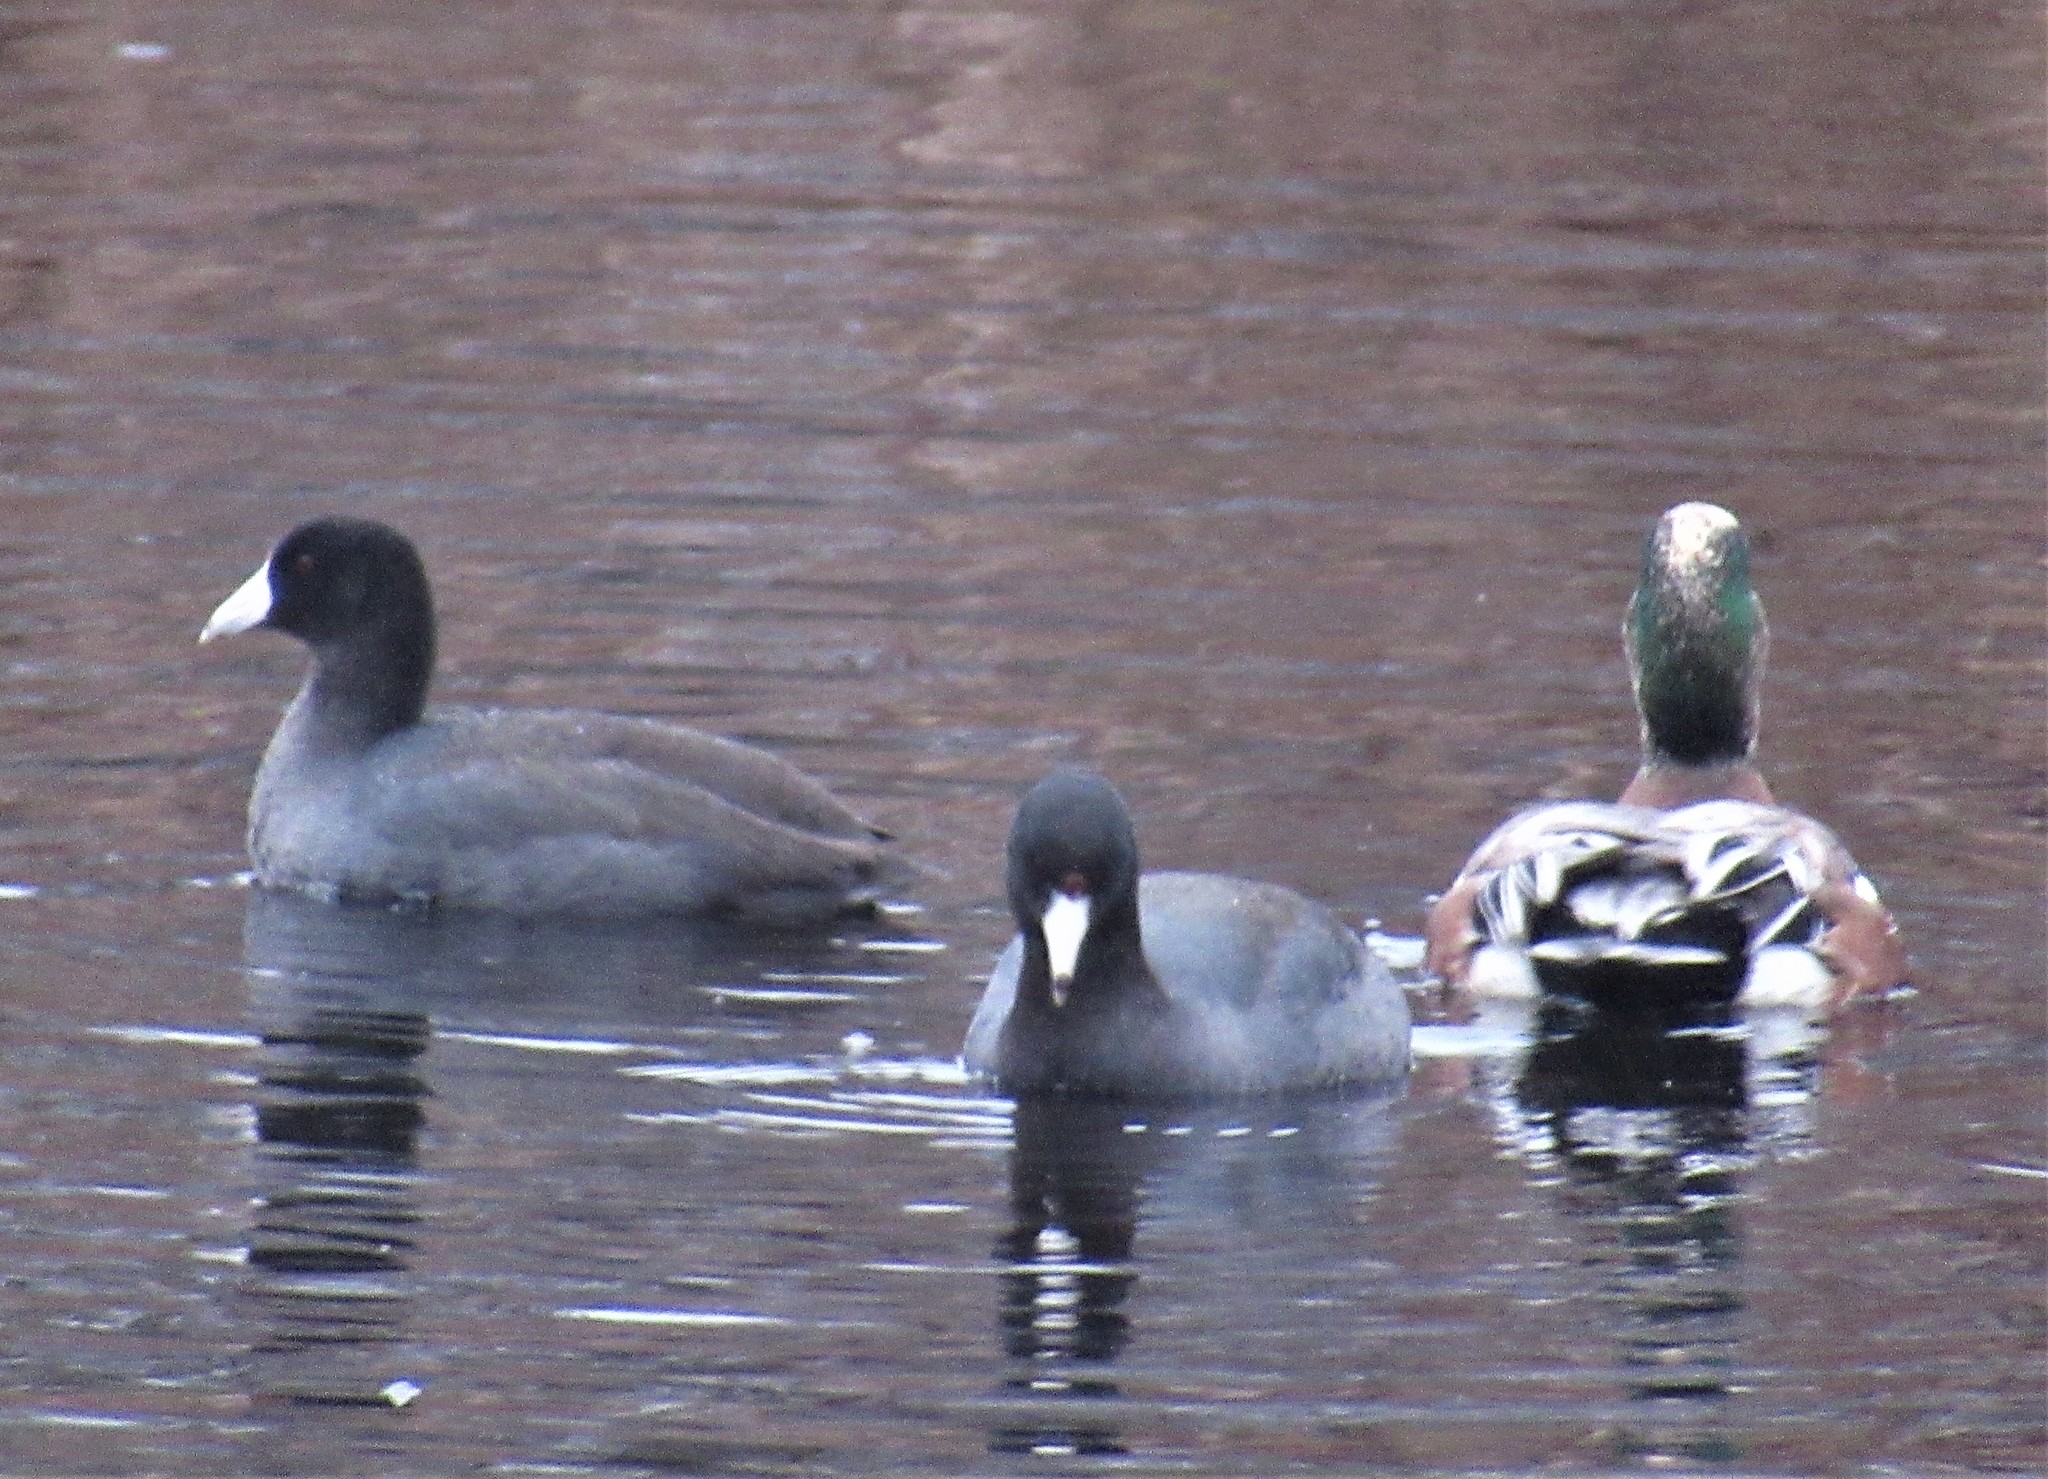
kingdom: Animalia
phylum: Chordata
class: Aves
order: Gruiformes
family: Rallidae
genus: Fulica
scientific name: Fulica americana
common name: American coot
